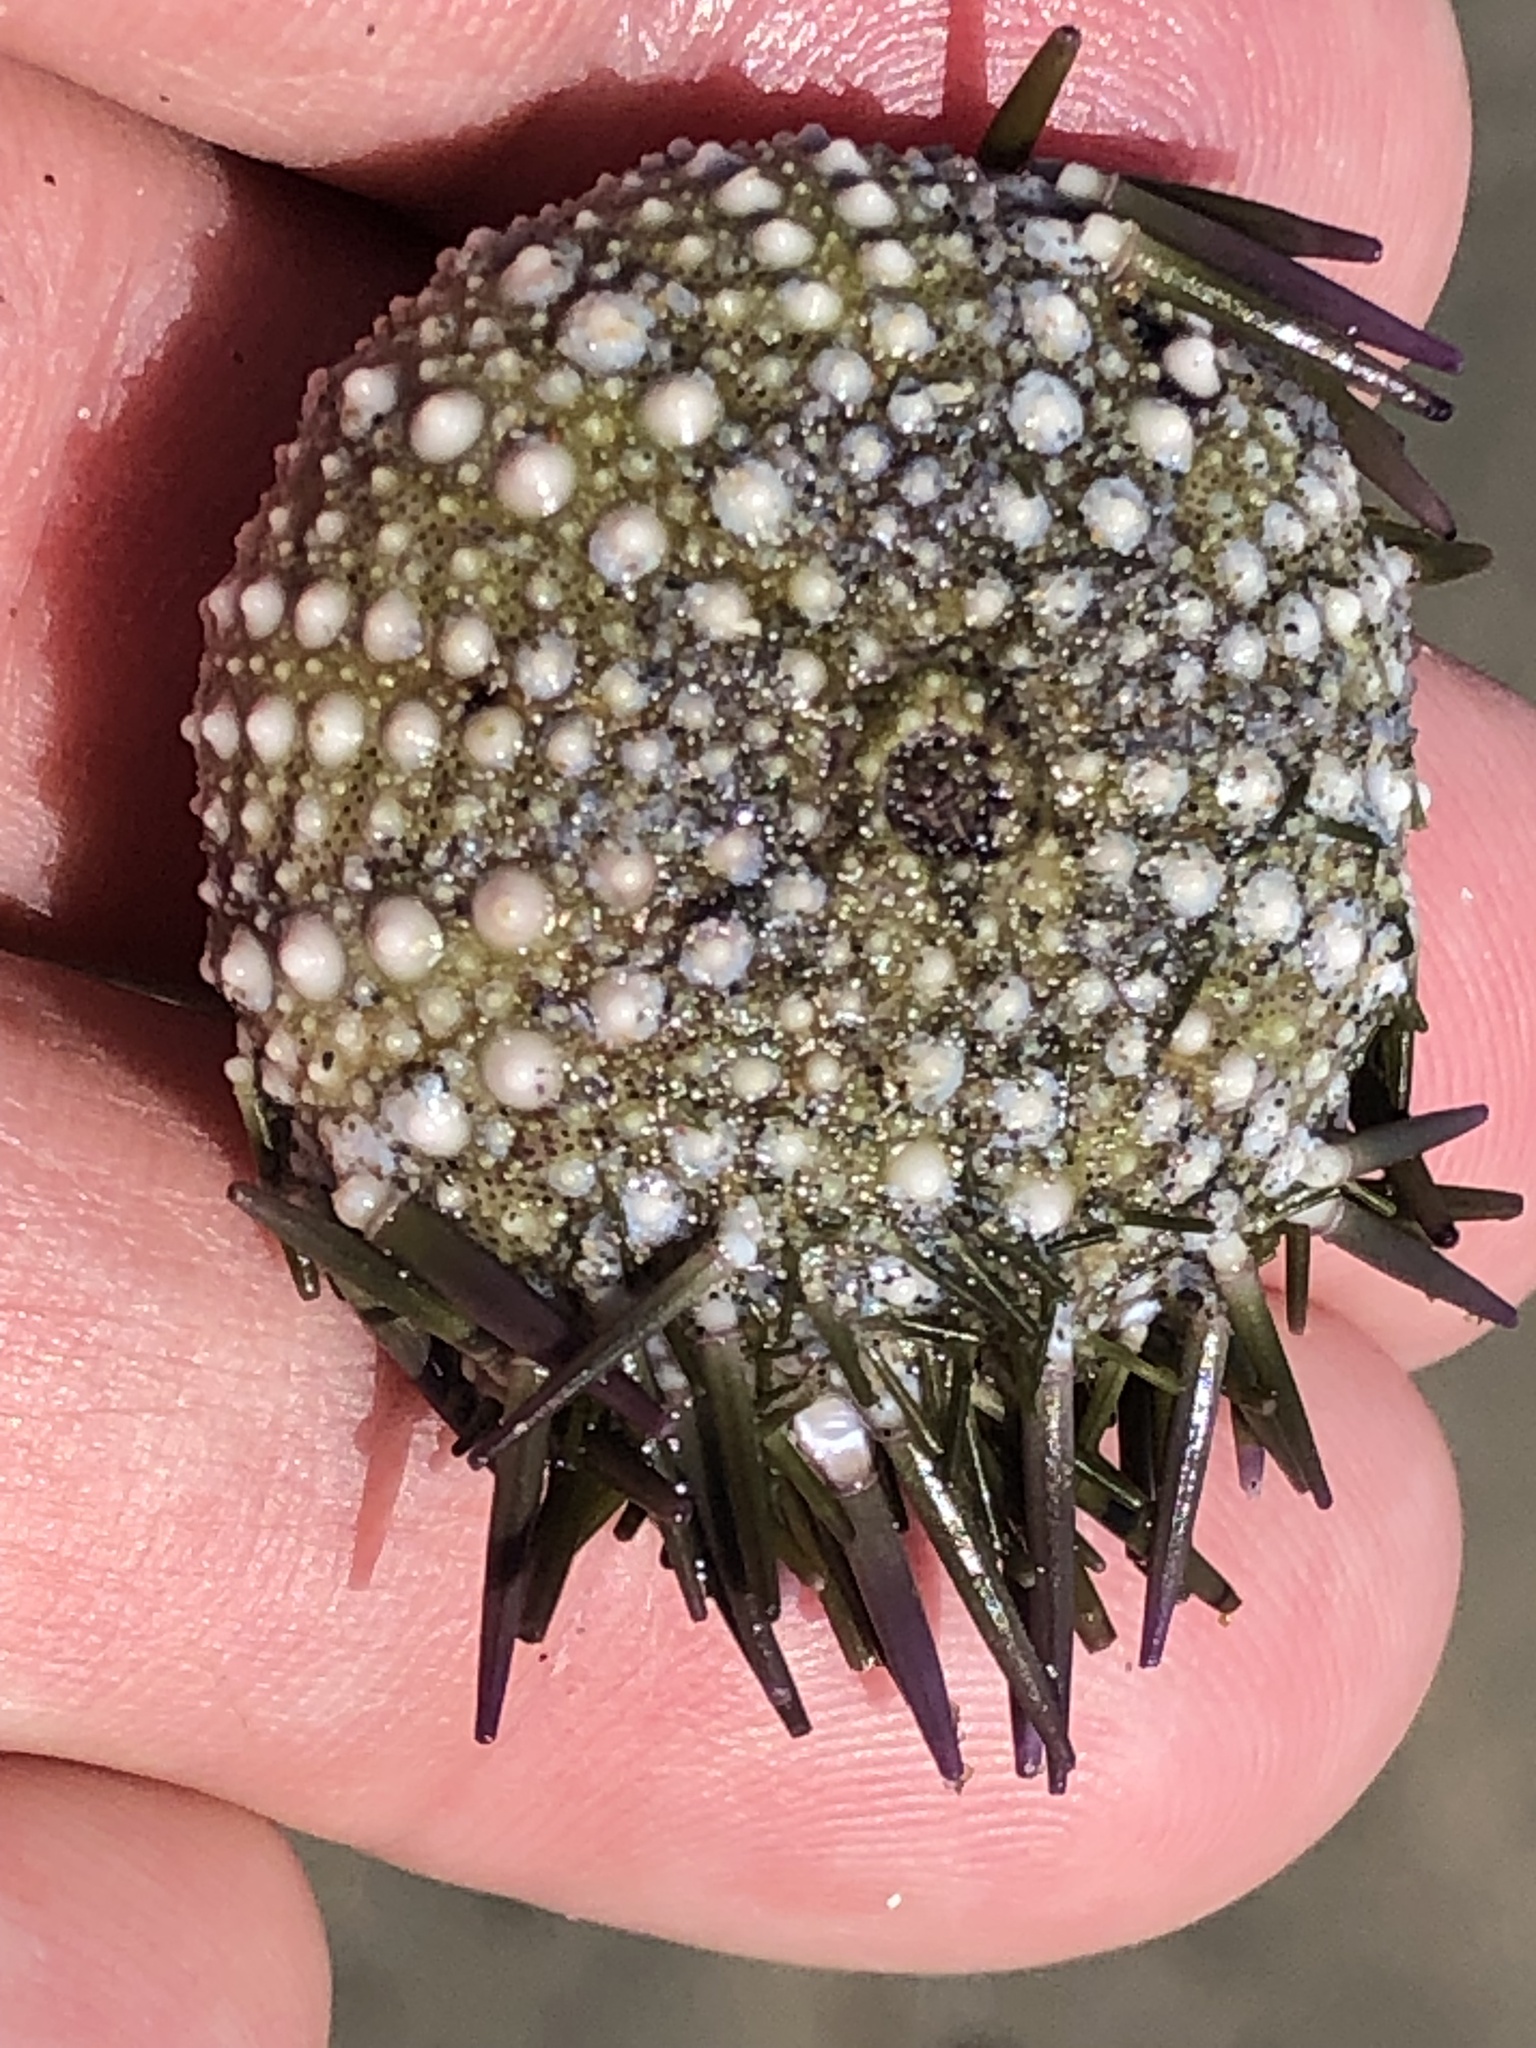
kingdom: Animalia
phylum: Echinodermata
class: Echinoidea
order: Camarodonta
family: Strongylocentrotidae
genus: Strongylocentrotus
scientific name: Strongylocentrotus purpuratus
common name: Purple sea urchin
